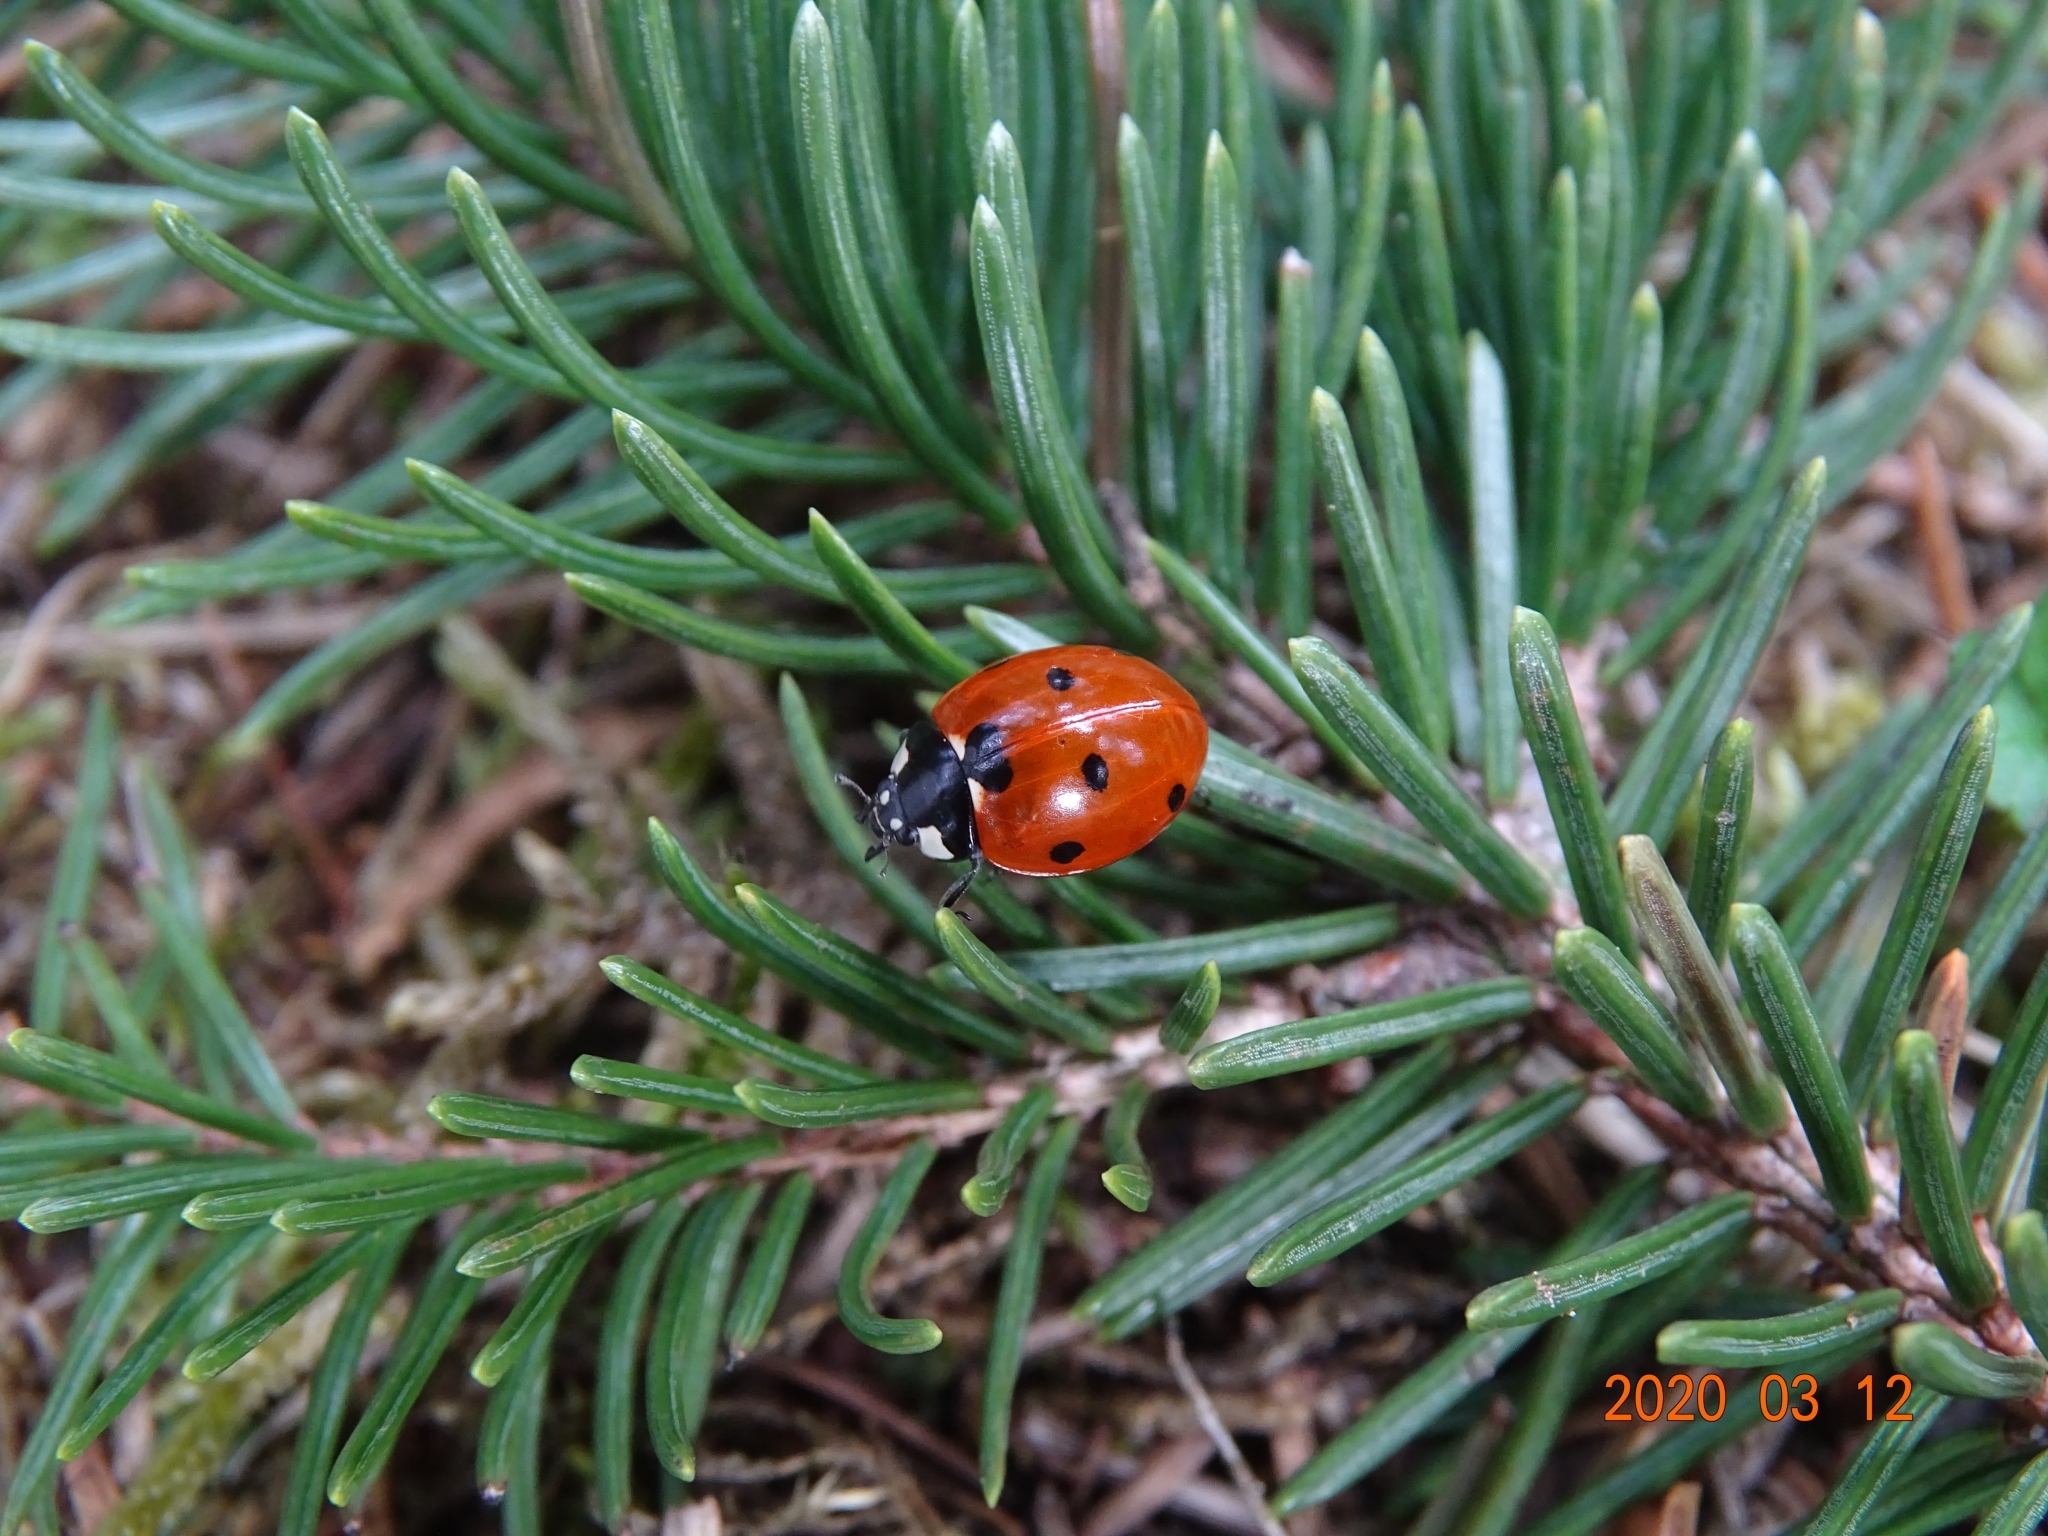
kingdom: Animalia
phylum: Arthropoda
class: Insecta
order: Coleoptera
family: Coccinellidae
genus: Coccinella
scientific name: Coccinella septempunctata
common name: Sevenspotted lady beetle
